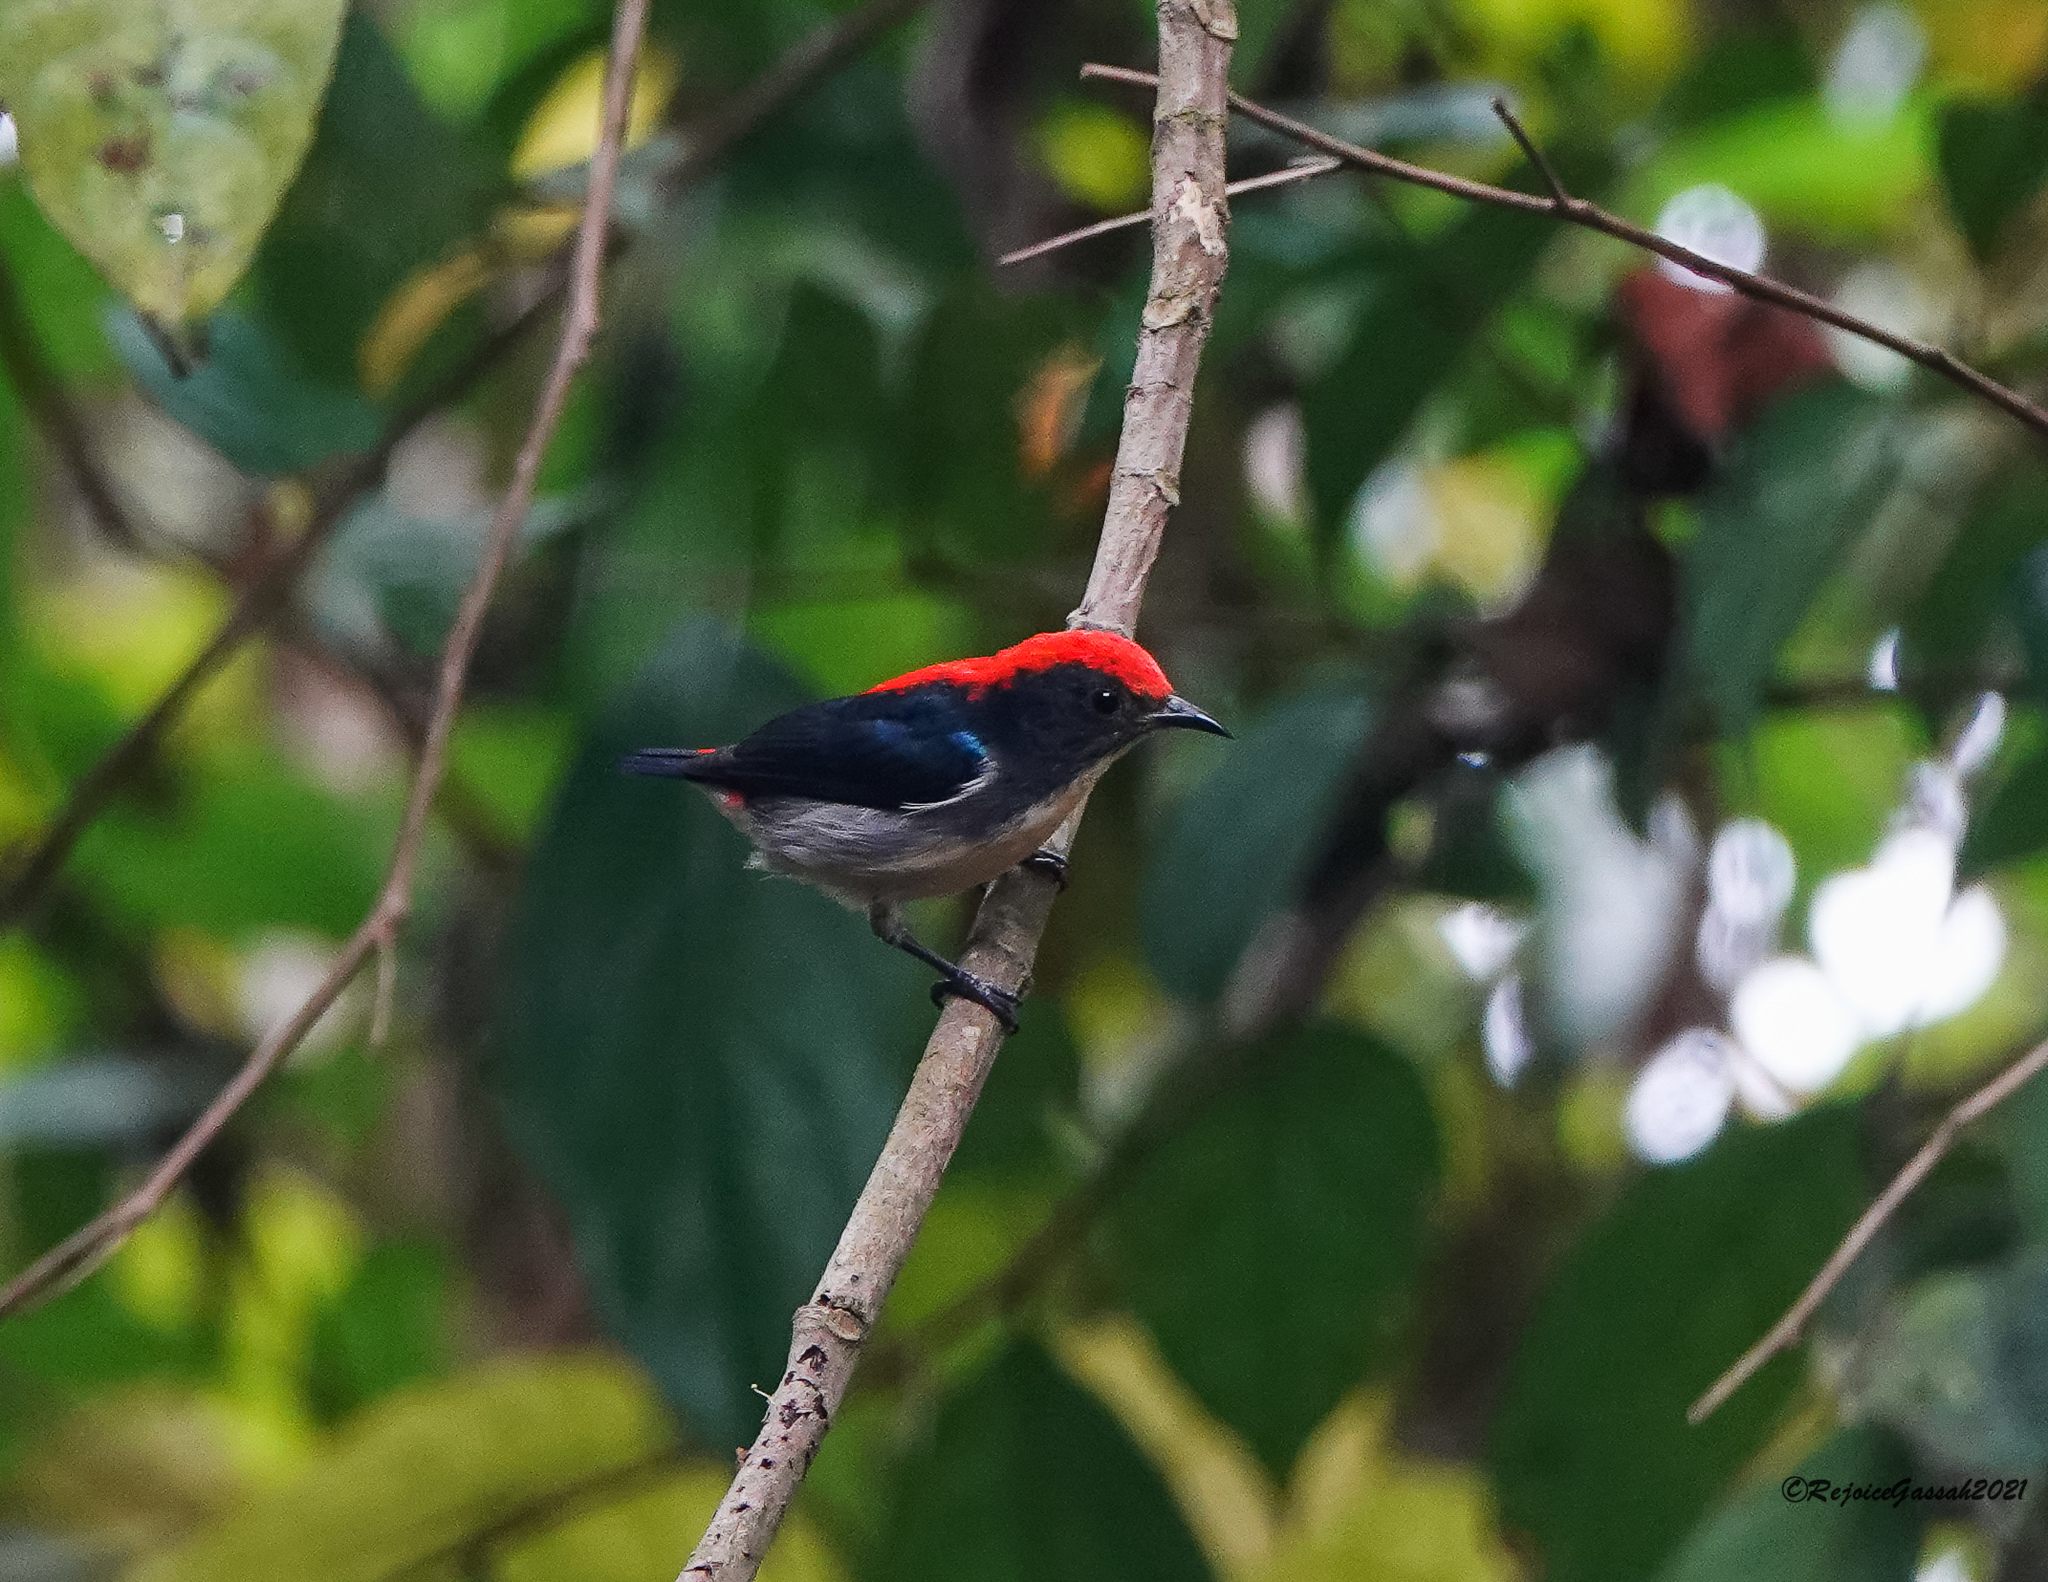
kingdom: Animalia
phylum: Chordata
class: Aves
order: Passeriformes
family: Dicaeidae
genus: Dicaeum
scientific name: Dicaeum cruentatum
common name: Scarlet-backed flowerpecker
